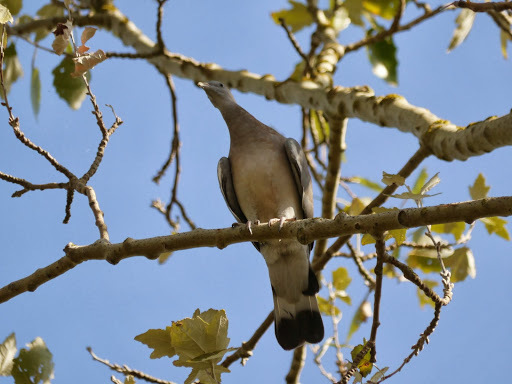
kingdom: Animalia
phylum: Chordata
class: Aves
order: Columbiformes
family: Columbidae
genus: Columba
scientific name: Columba palumbus
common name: Common wood pigeon
